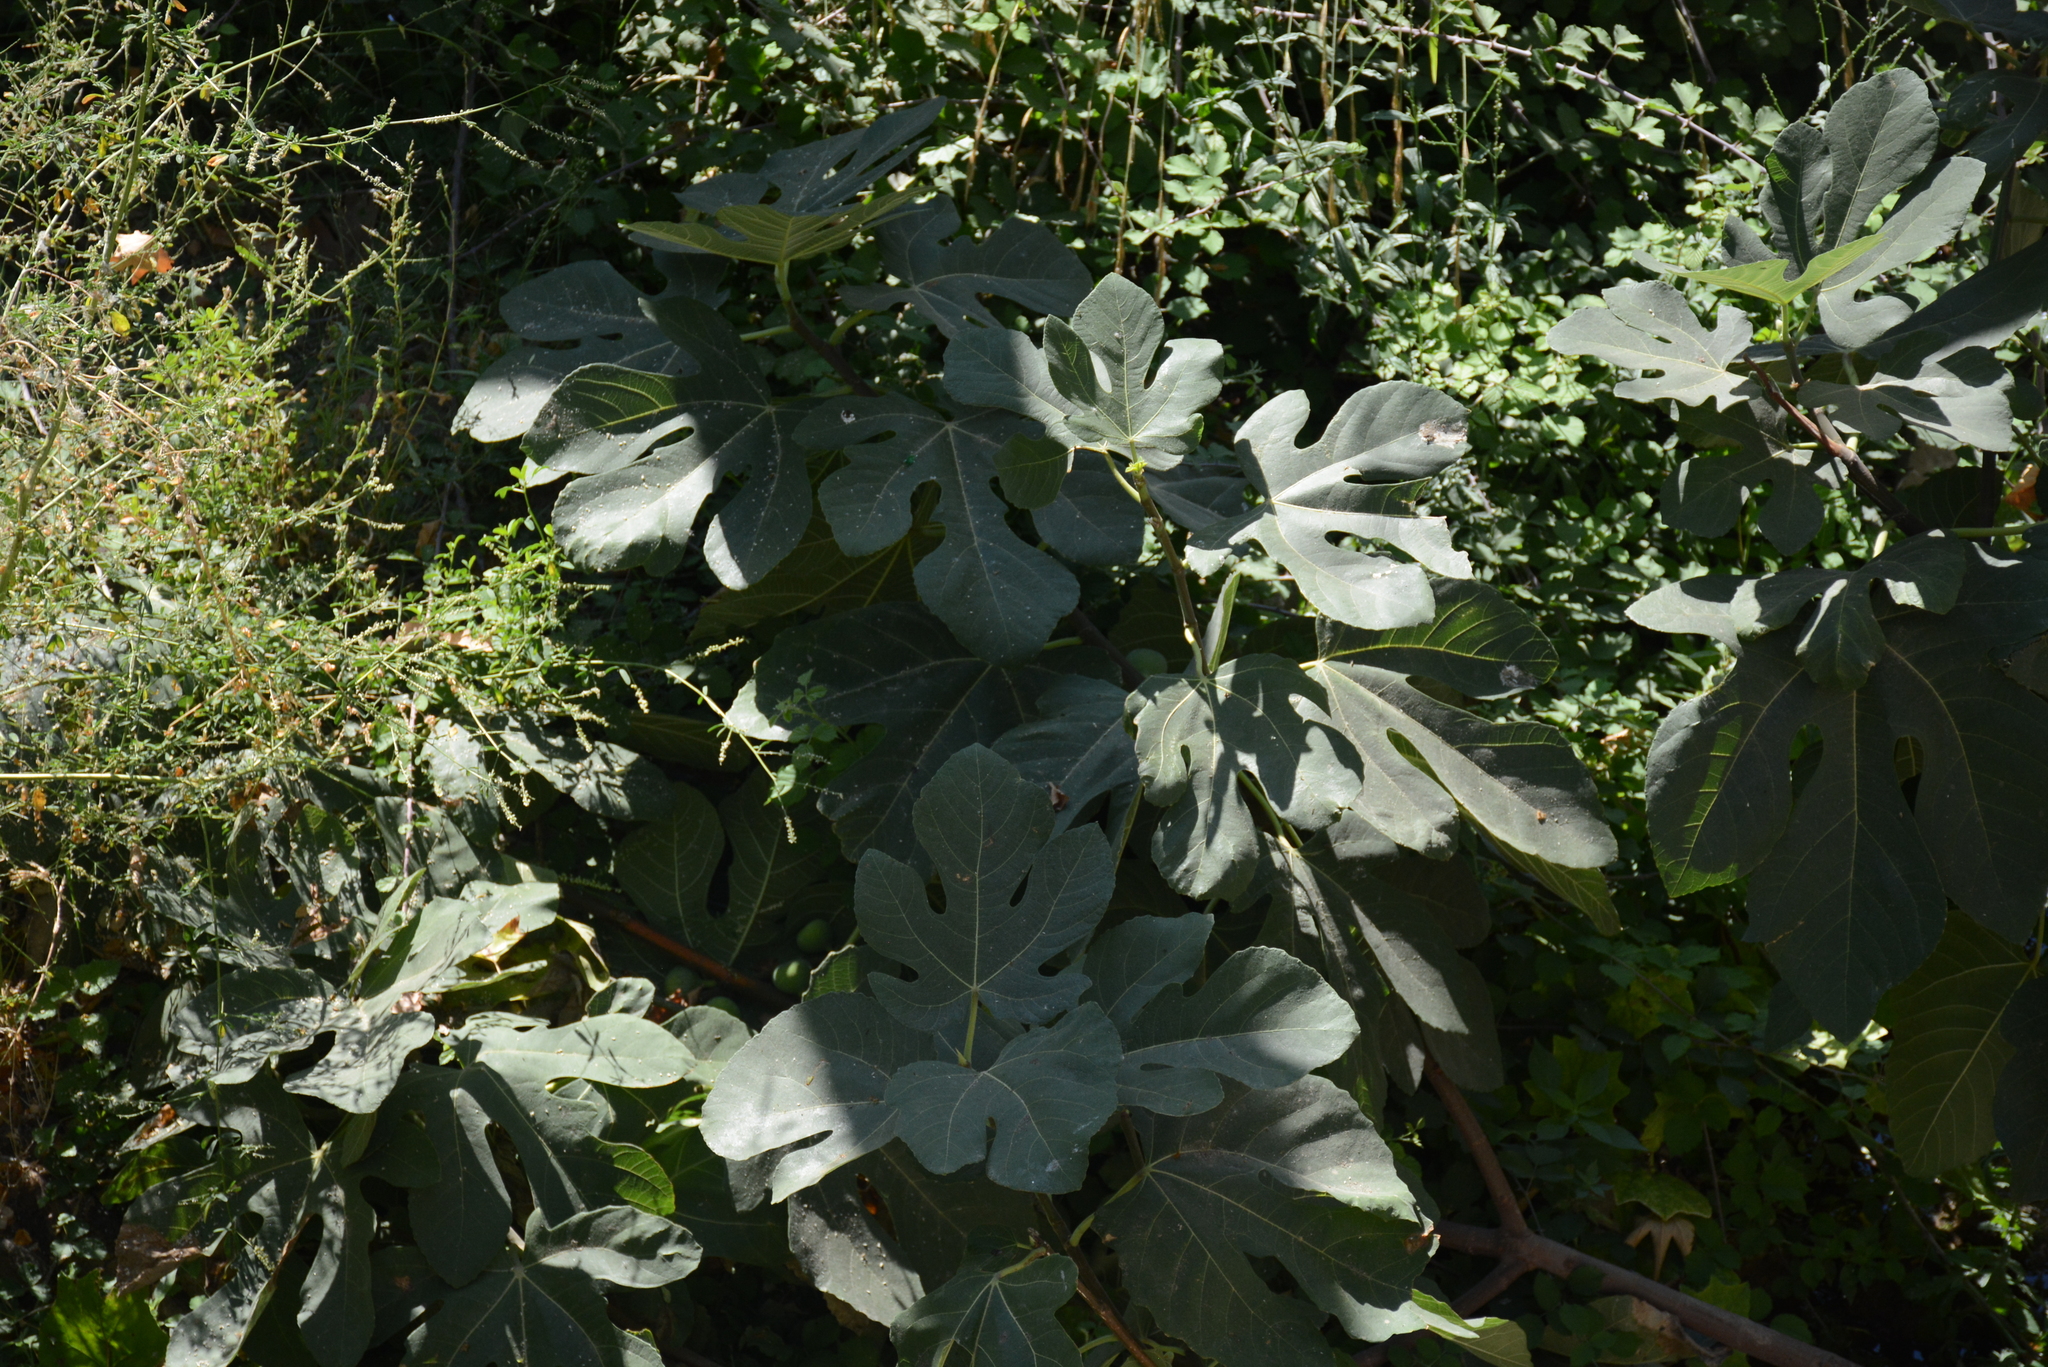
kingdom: Plantae
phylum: Tracheophyta
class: Magnoliopsida
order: Rosales
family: Moraceae
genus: Ficus
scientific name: Ficus carica
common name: Fig
